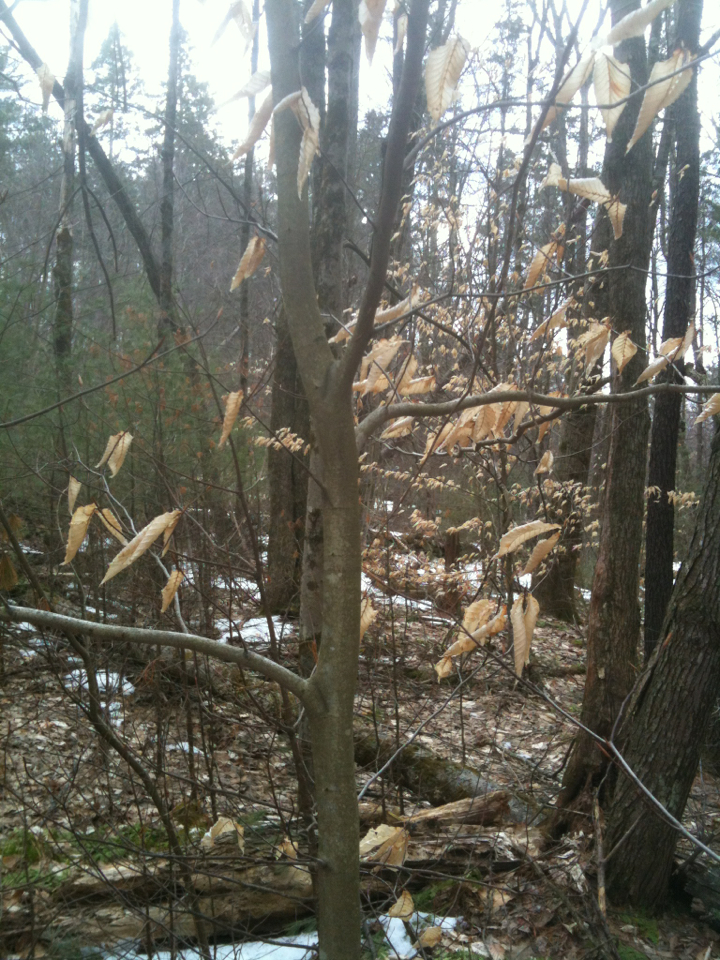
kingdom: Plantae
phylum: Tracheophyta
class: Magnoliopsida
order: Fagales
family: Fagaceae
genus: Fagus
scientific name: Fagus grandifolia
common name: American beech
